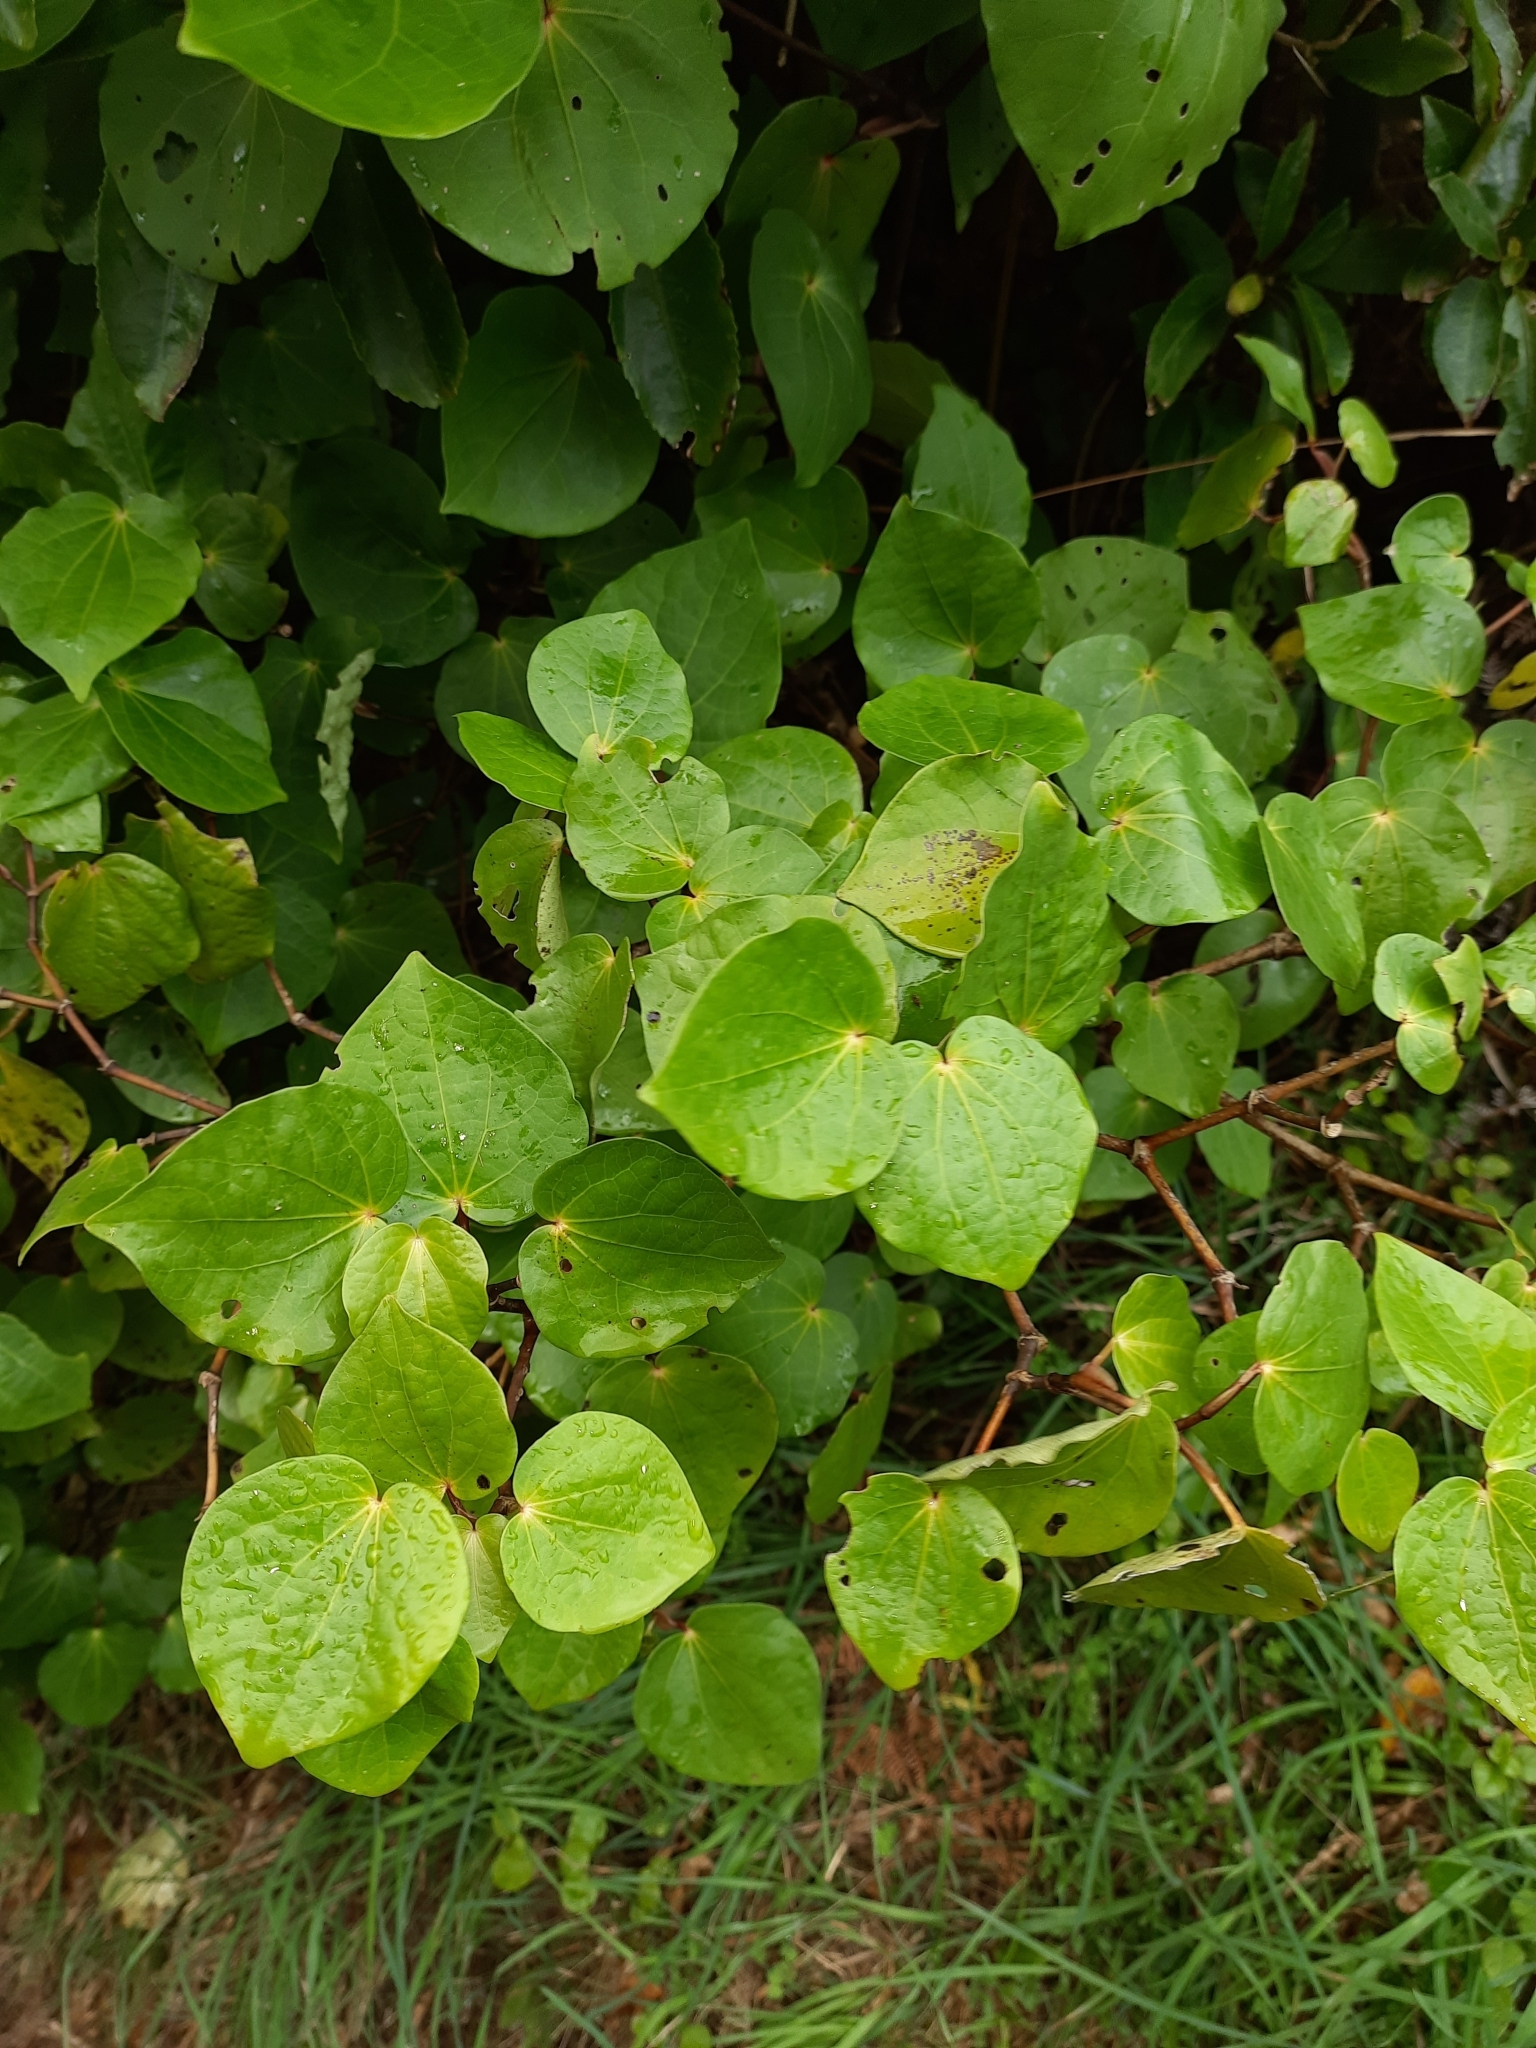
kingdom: Plantae
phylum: Tracheophyta
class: Magnoliopsida
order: Piperales
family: Piperaceae
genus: Macropiper
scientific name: Macropiper excelsum
